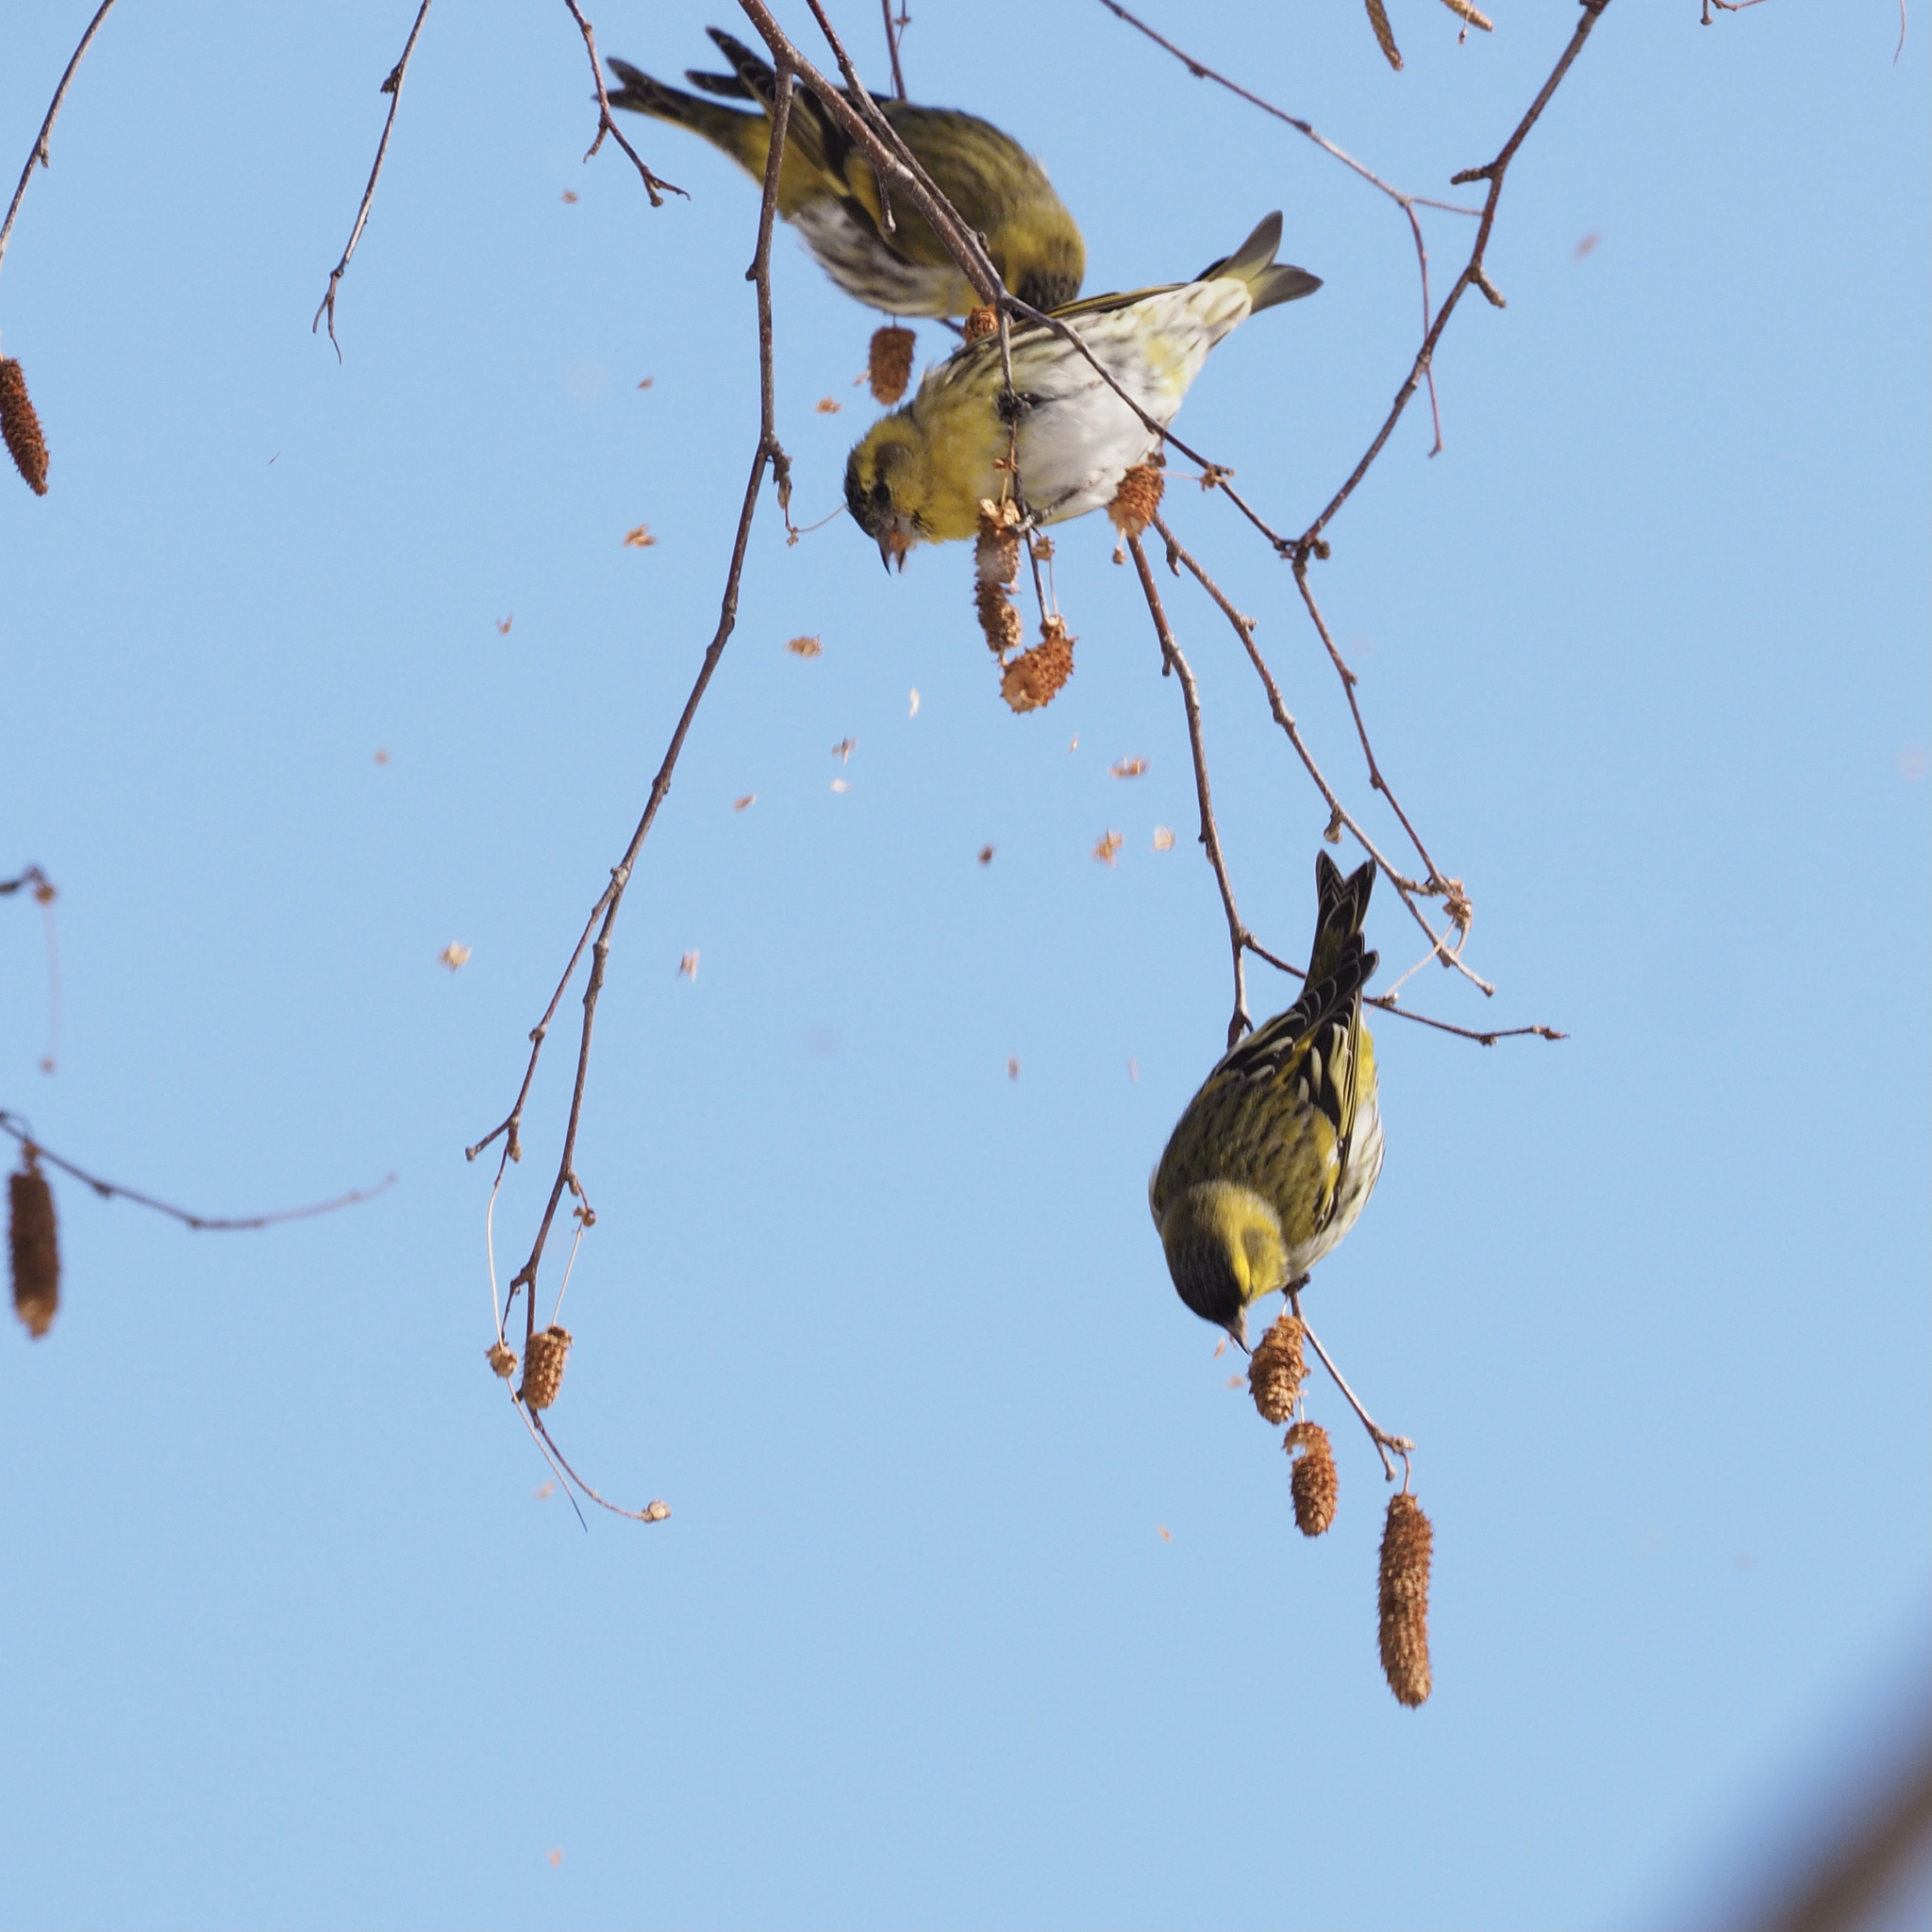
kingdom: Animalia
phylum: Chordata
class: Aves
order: Passeriformes
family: Fringillidae
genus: Spinus
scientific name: Spinus spinus
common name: Eurasian siskin
